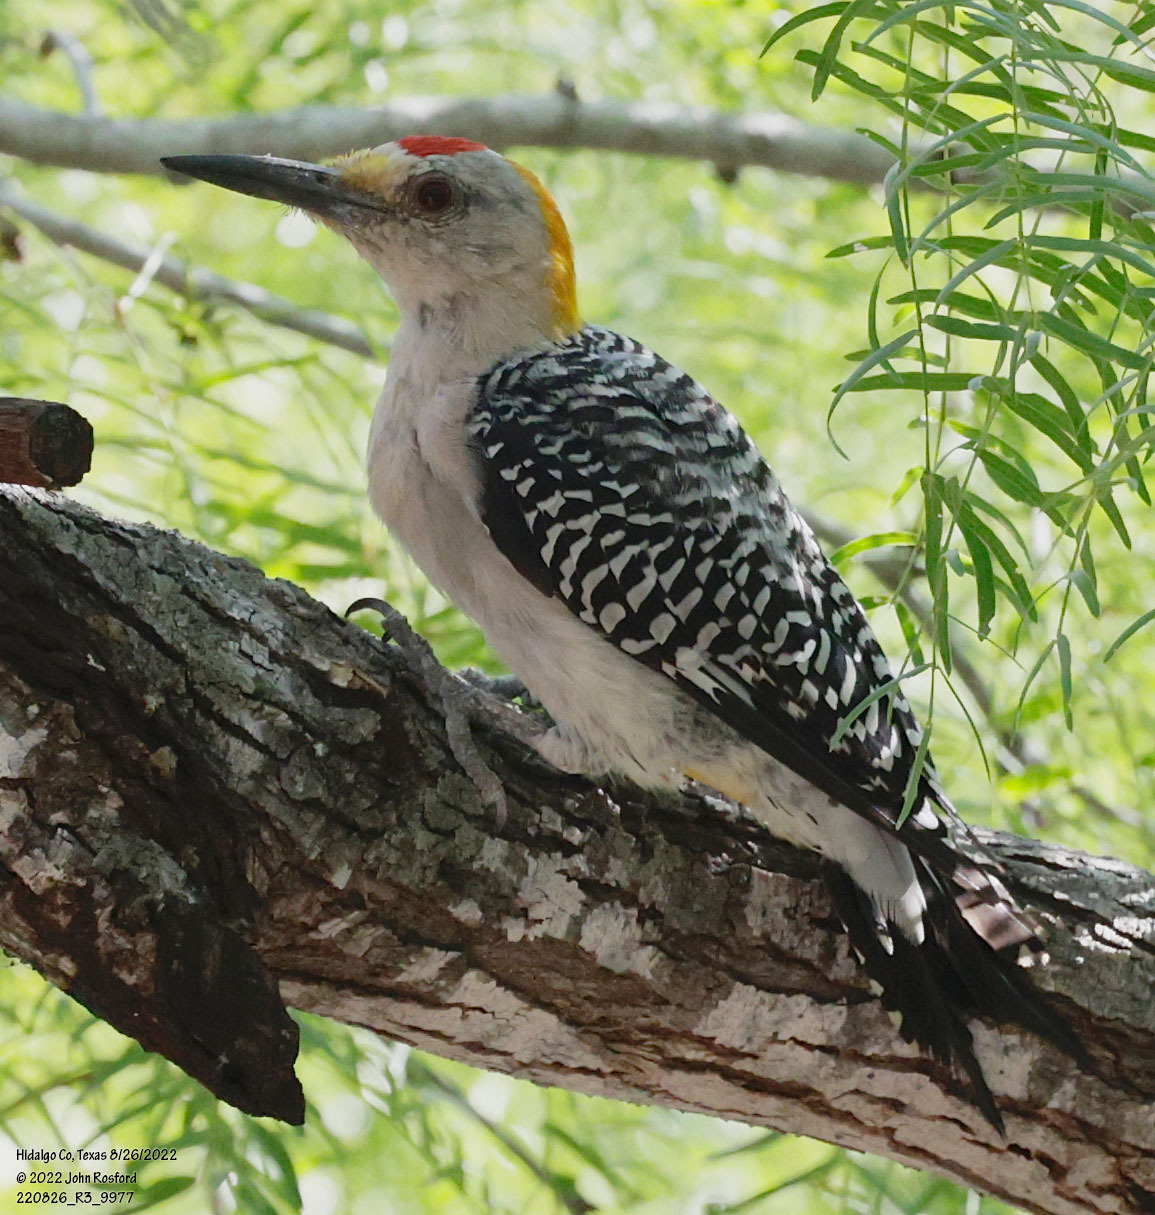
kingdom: Animalia
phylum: Chordata
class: Aves
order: Piciformes
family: Picidae
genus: Melanerpes
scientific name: Melanerpes aurifrons
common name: Golden-fronted woodpecker
